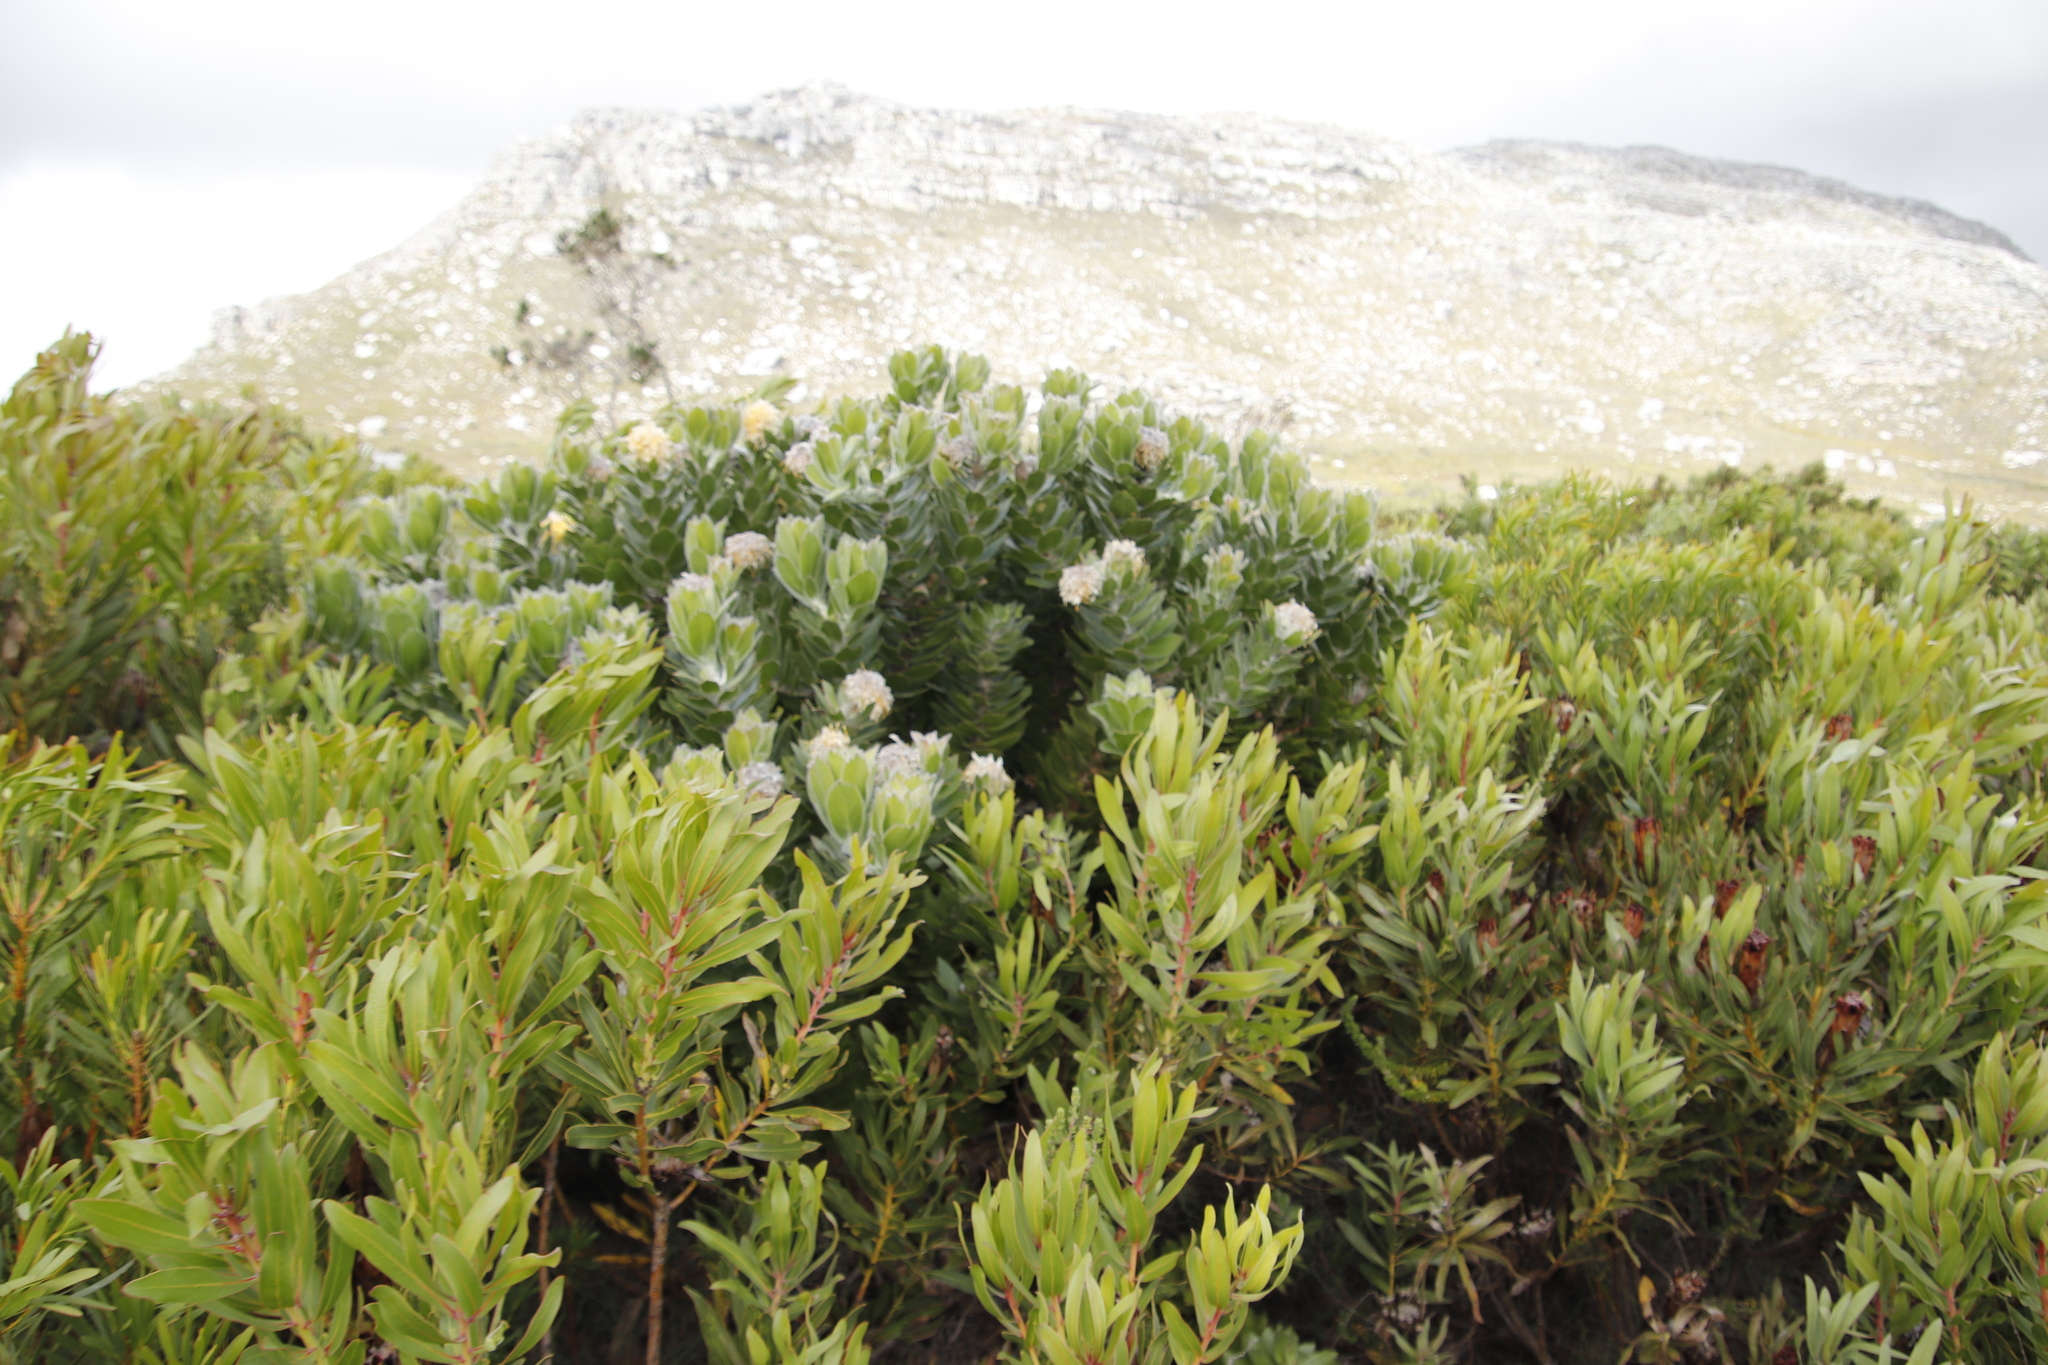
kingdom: Plantae
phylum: Tracheophyta
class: Magnoliopsida
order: Proteales
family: Proteaceae
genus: Leucospermum
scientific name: Leucospermum conocarpodendron
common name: Tree pincushion
